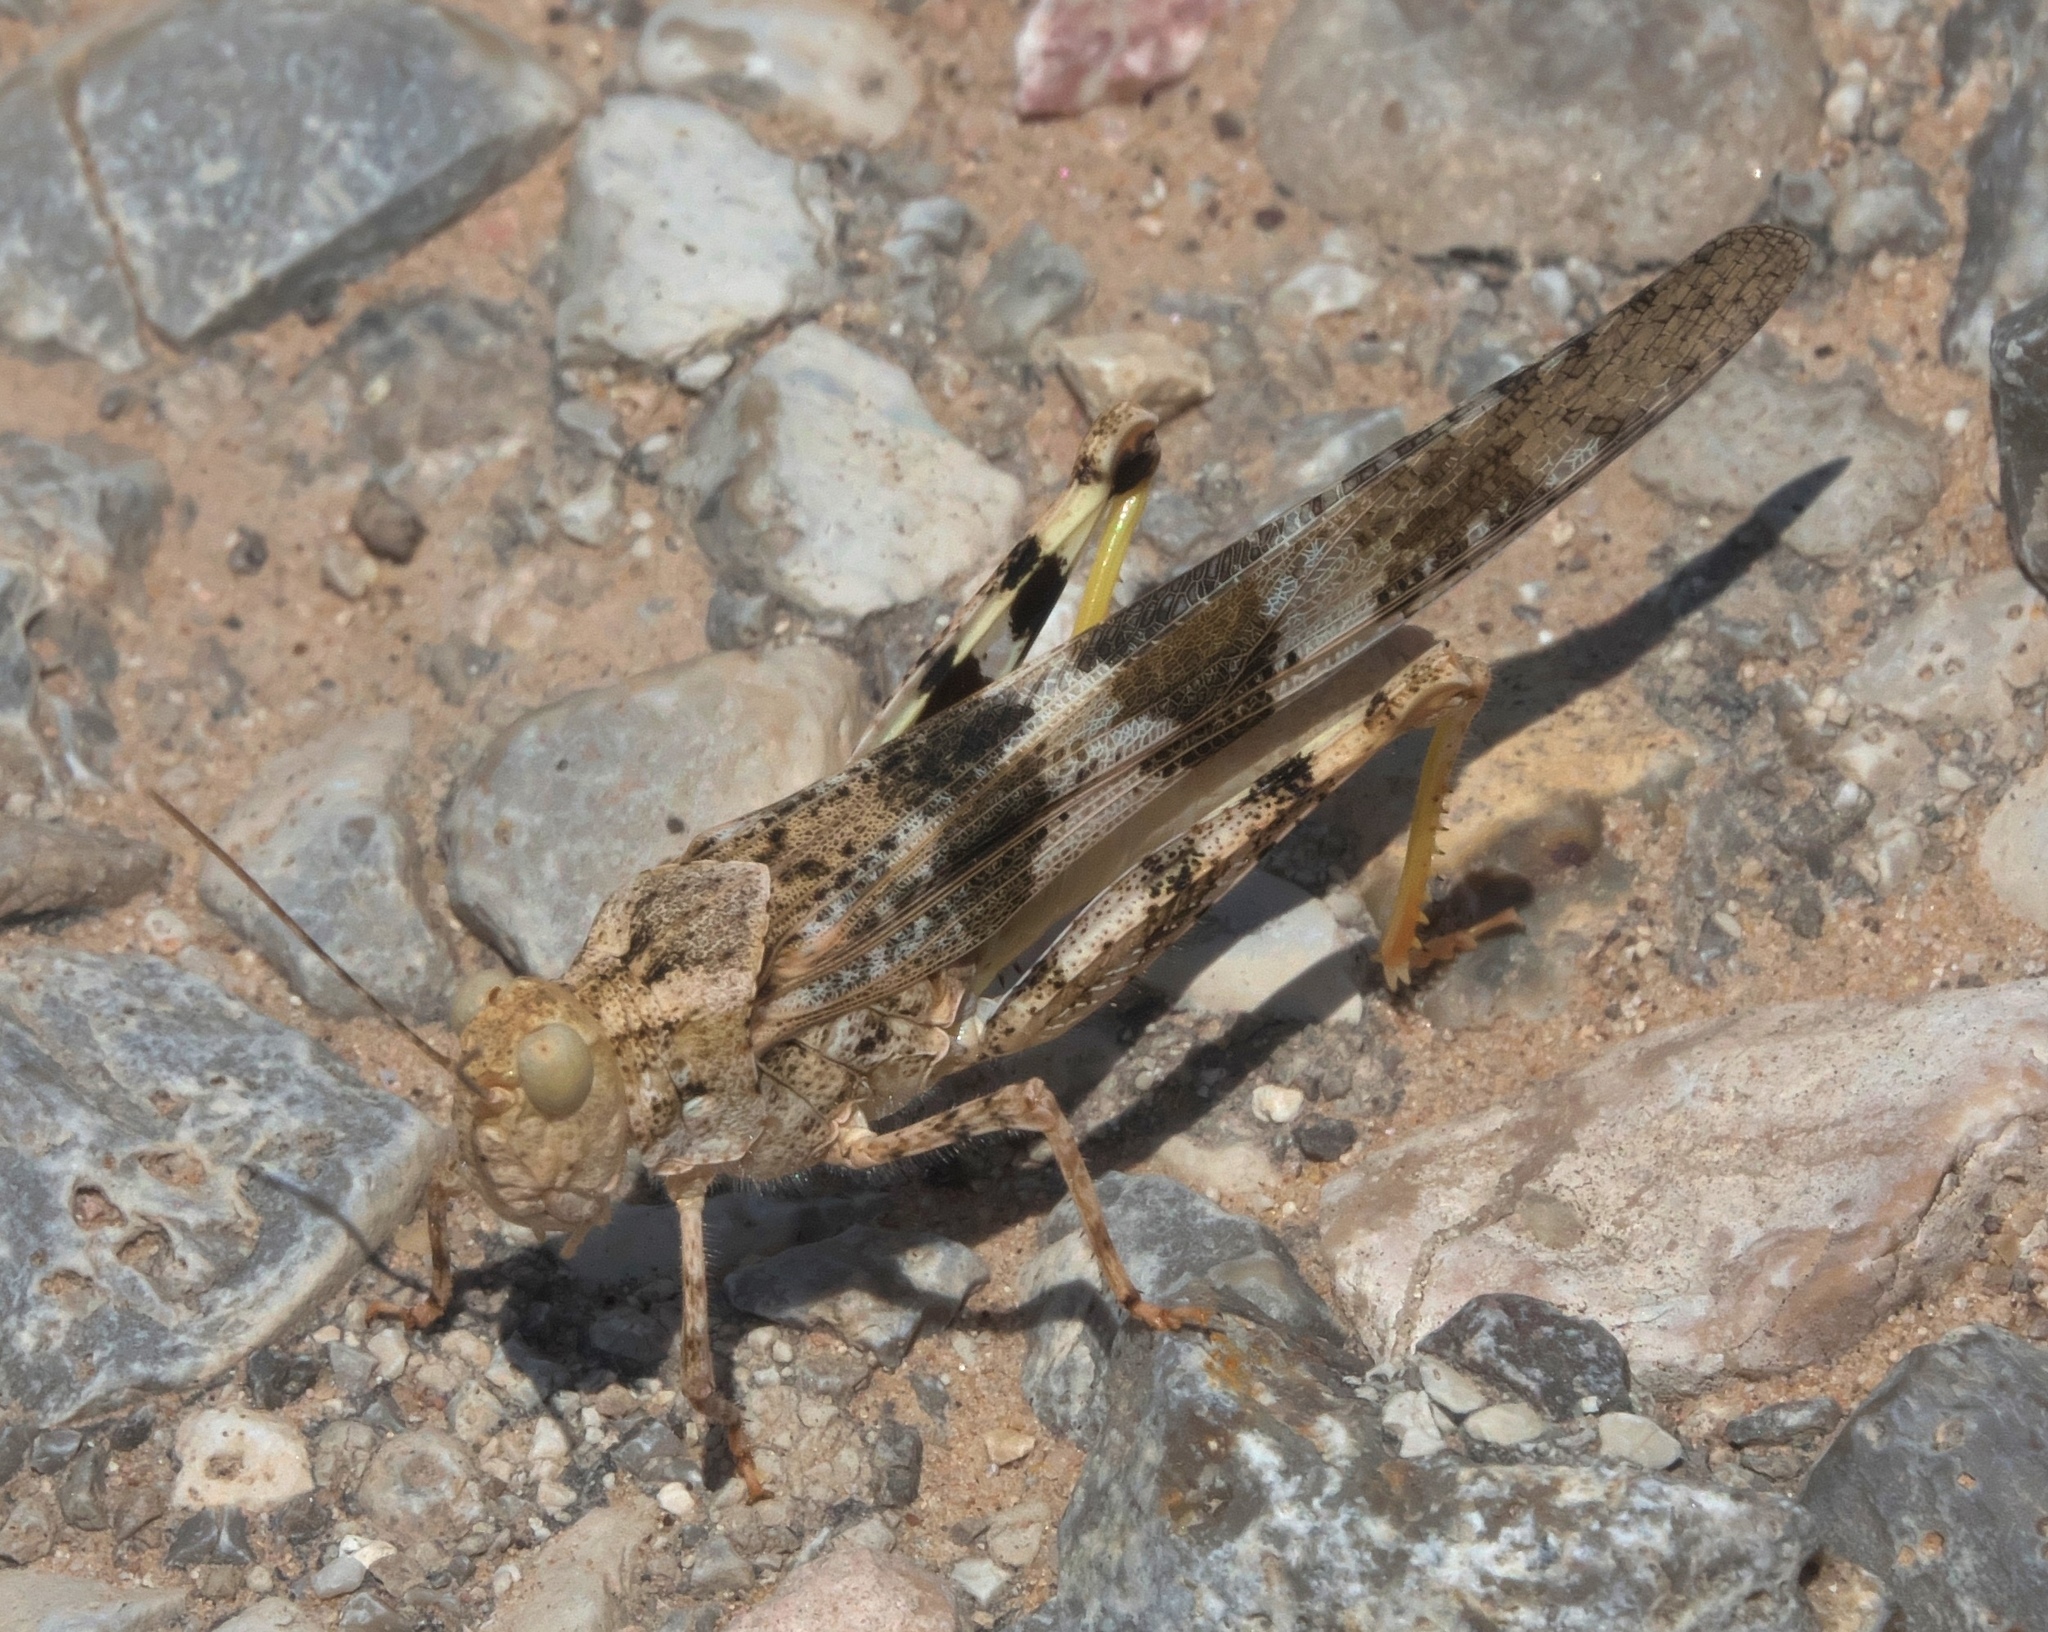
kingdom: Animalia
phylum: Arthropoda
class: Insecta
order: Orthoptera
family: Acrididae
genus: Trimerotropis
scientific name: Trimerotropis pallidipennis
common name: Pallid-winged grasshopper
